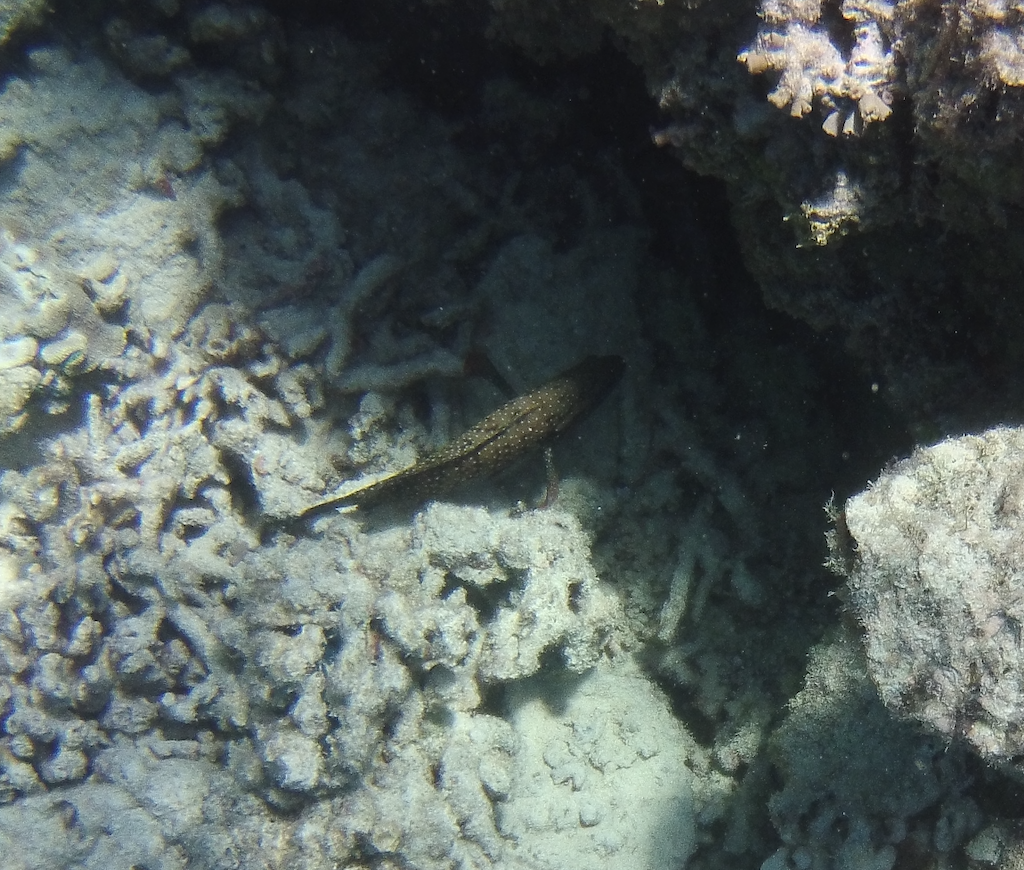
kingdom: Animalia
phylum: Chordata
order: Perciformes
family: Serranidae
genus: Cephalopholis
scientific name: Cephalopholis cyanostigma
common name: Bluespotted hind
